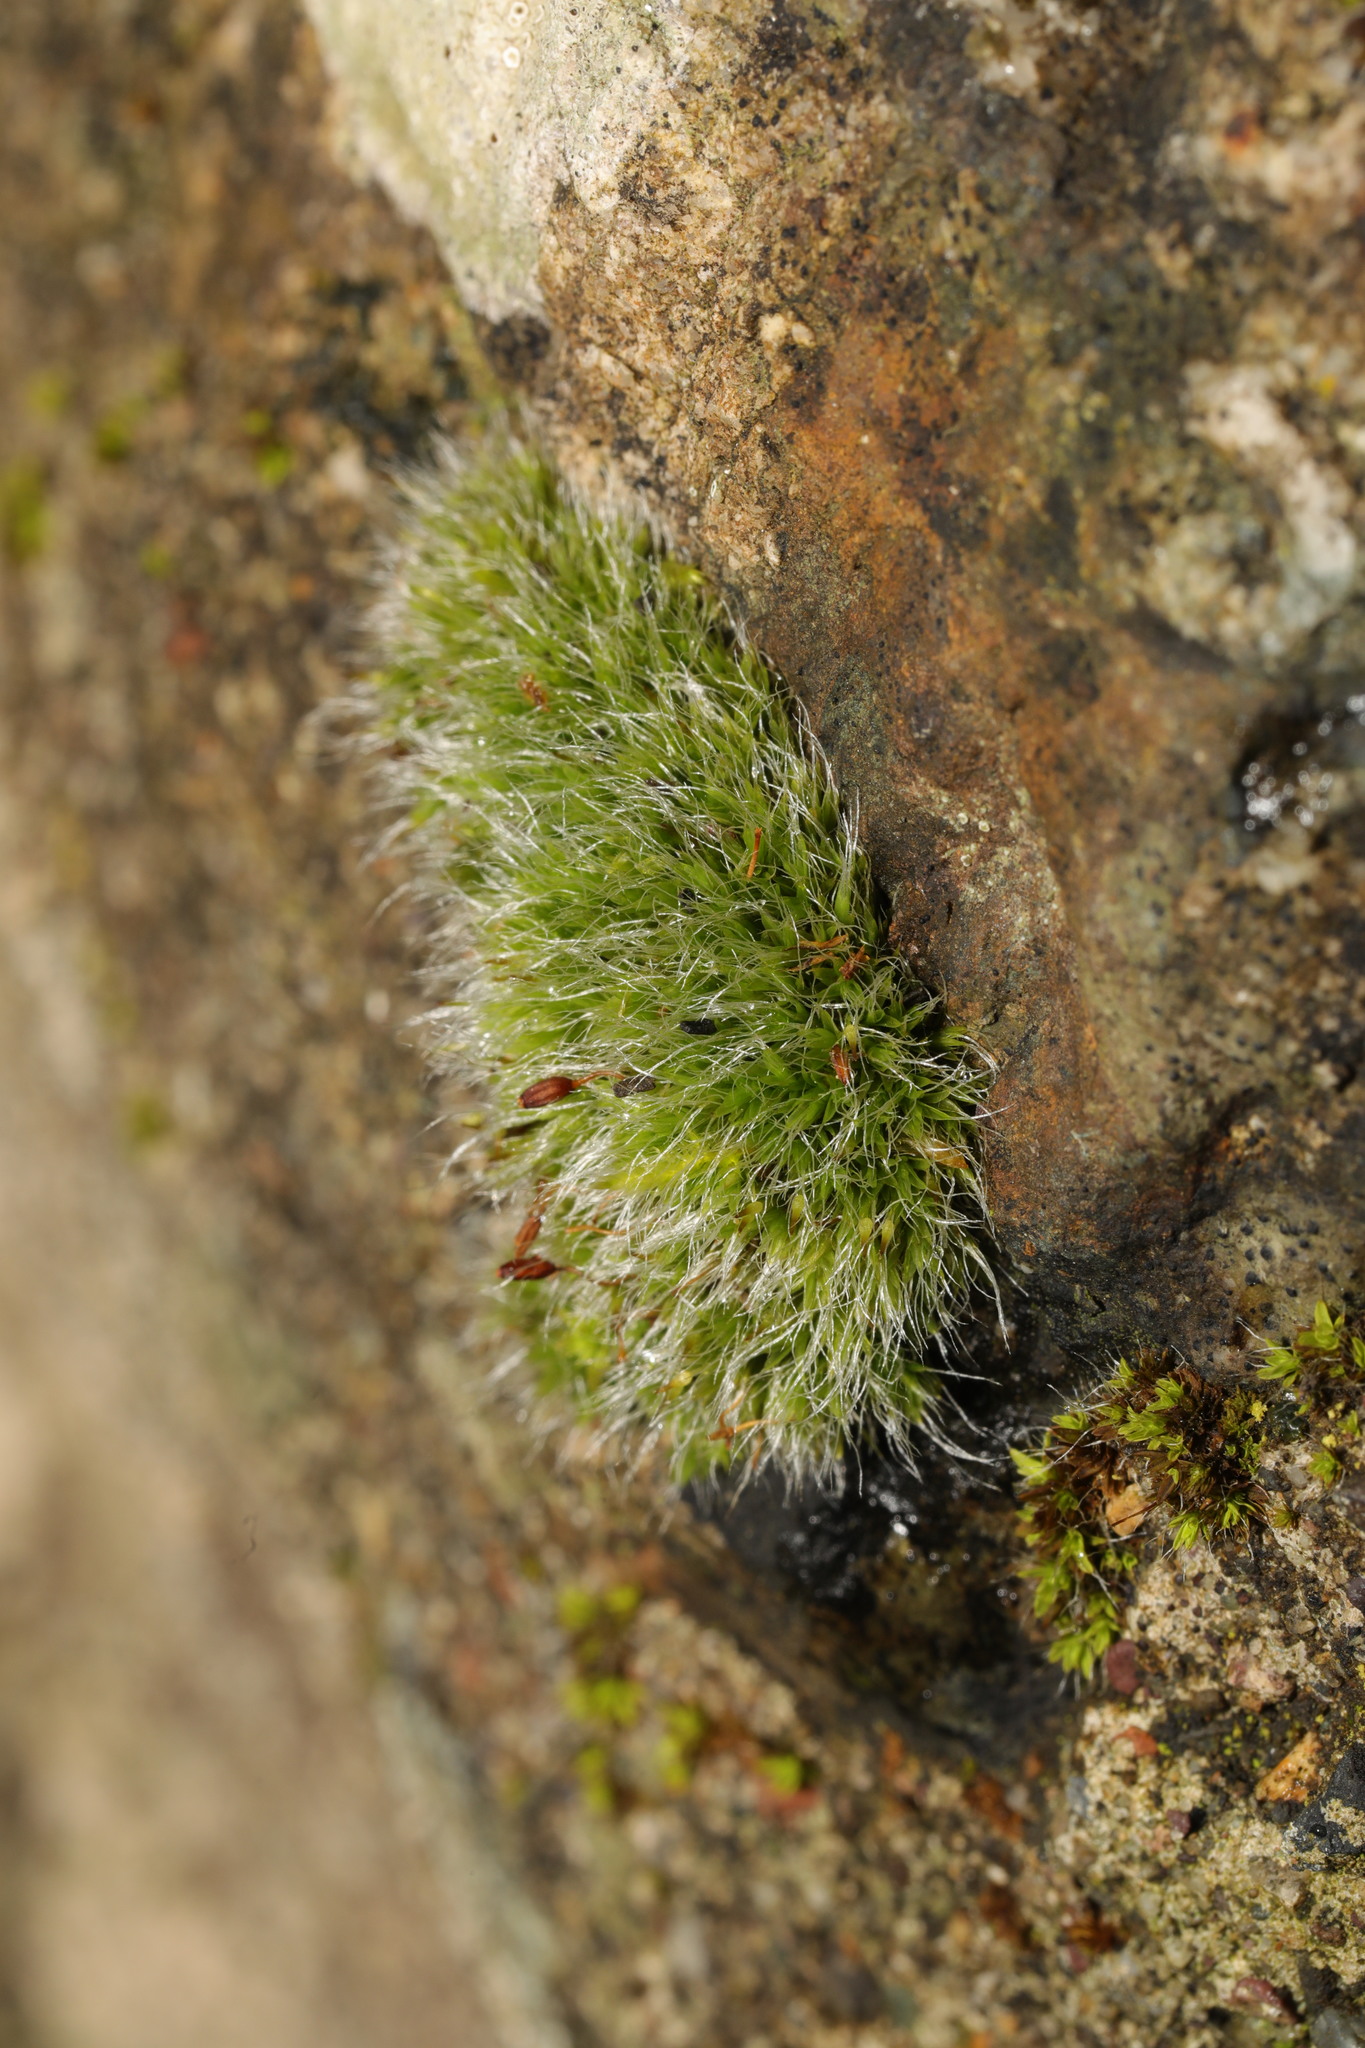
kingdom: Plantae
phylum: Bryophyta
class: Bryopsida
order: Grimmiales
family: Grimmiaceae
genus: Grimmia
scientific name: Grimmia pulvinata
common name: Grey-cushioned grimmia
